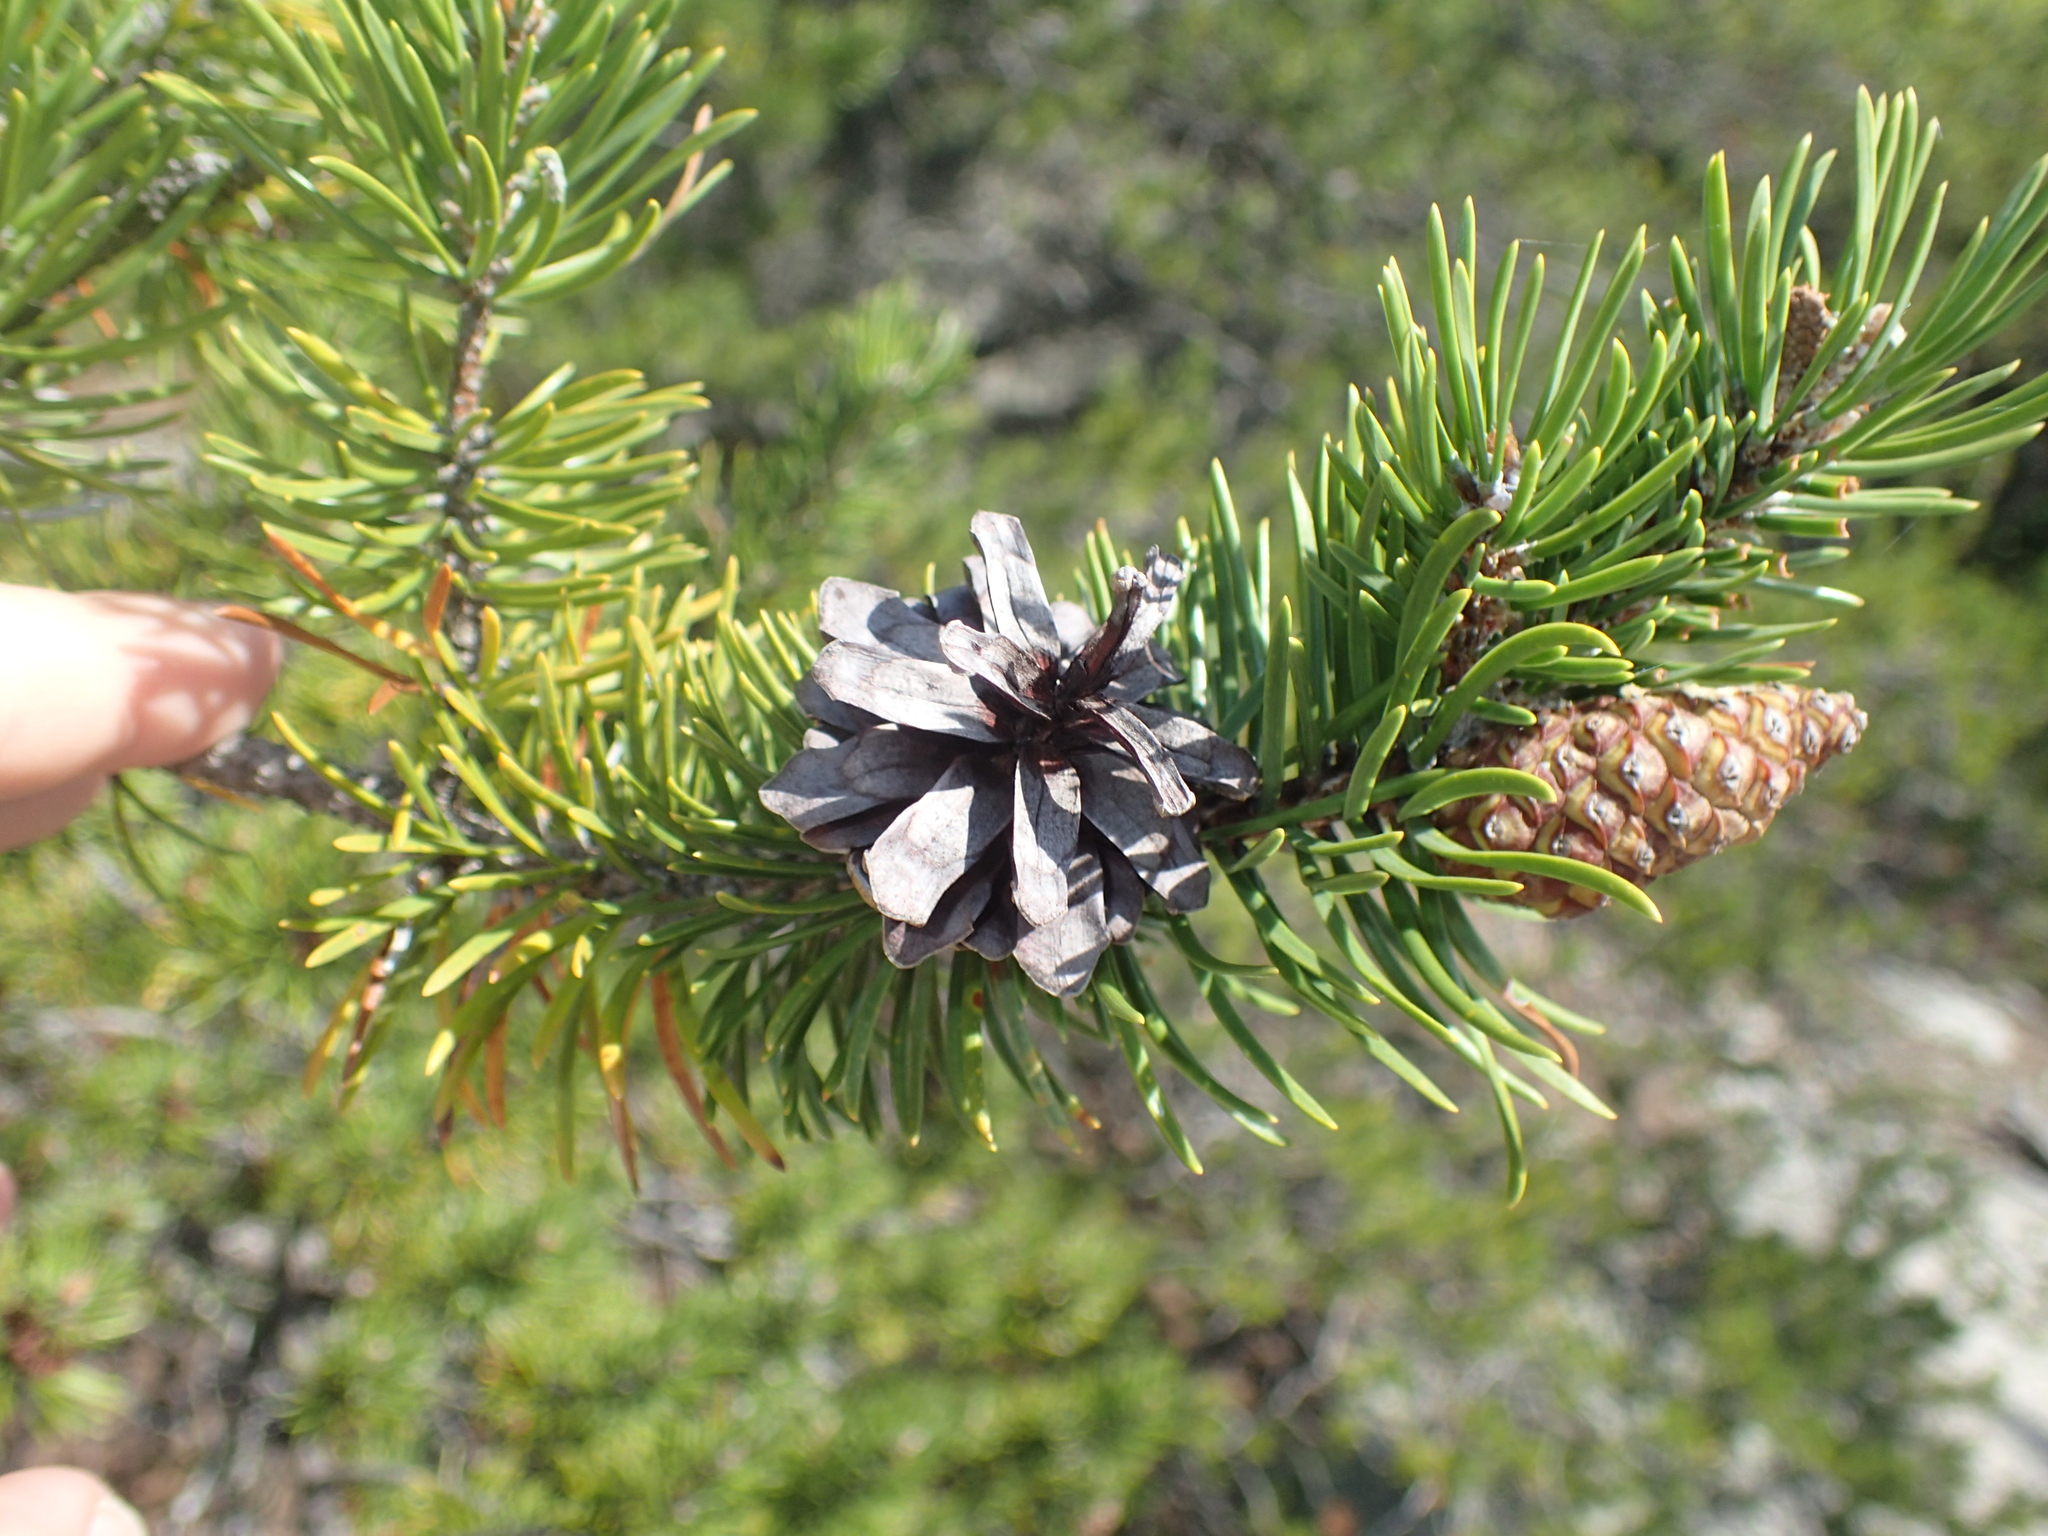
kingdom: Plantae
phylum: Tracheophyta
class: Pinopsida
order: Pinales
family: Pinaceae
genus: Pinus
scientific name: Pinus banksiana
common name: Jack pine
